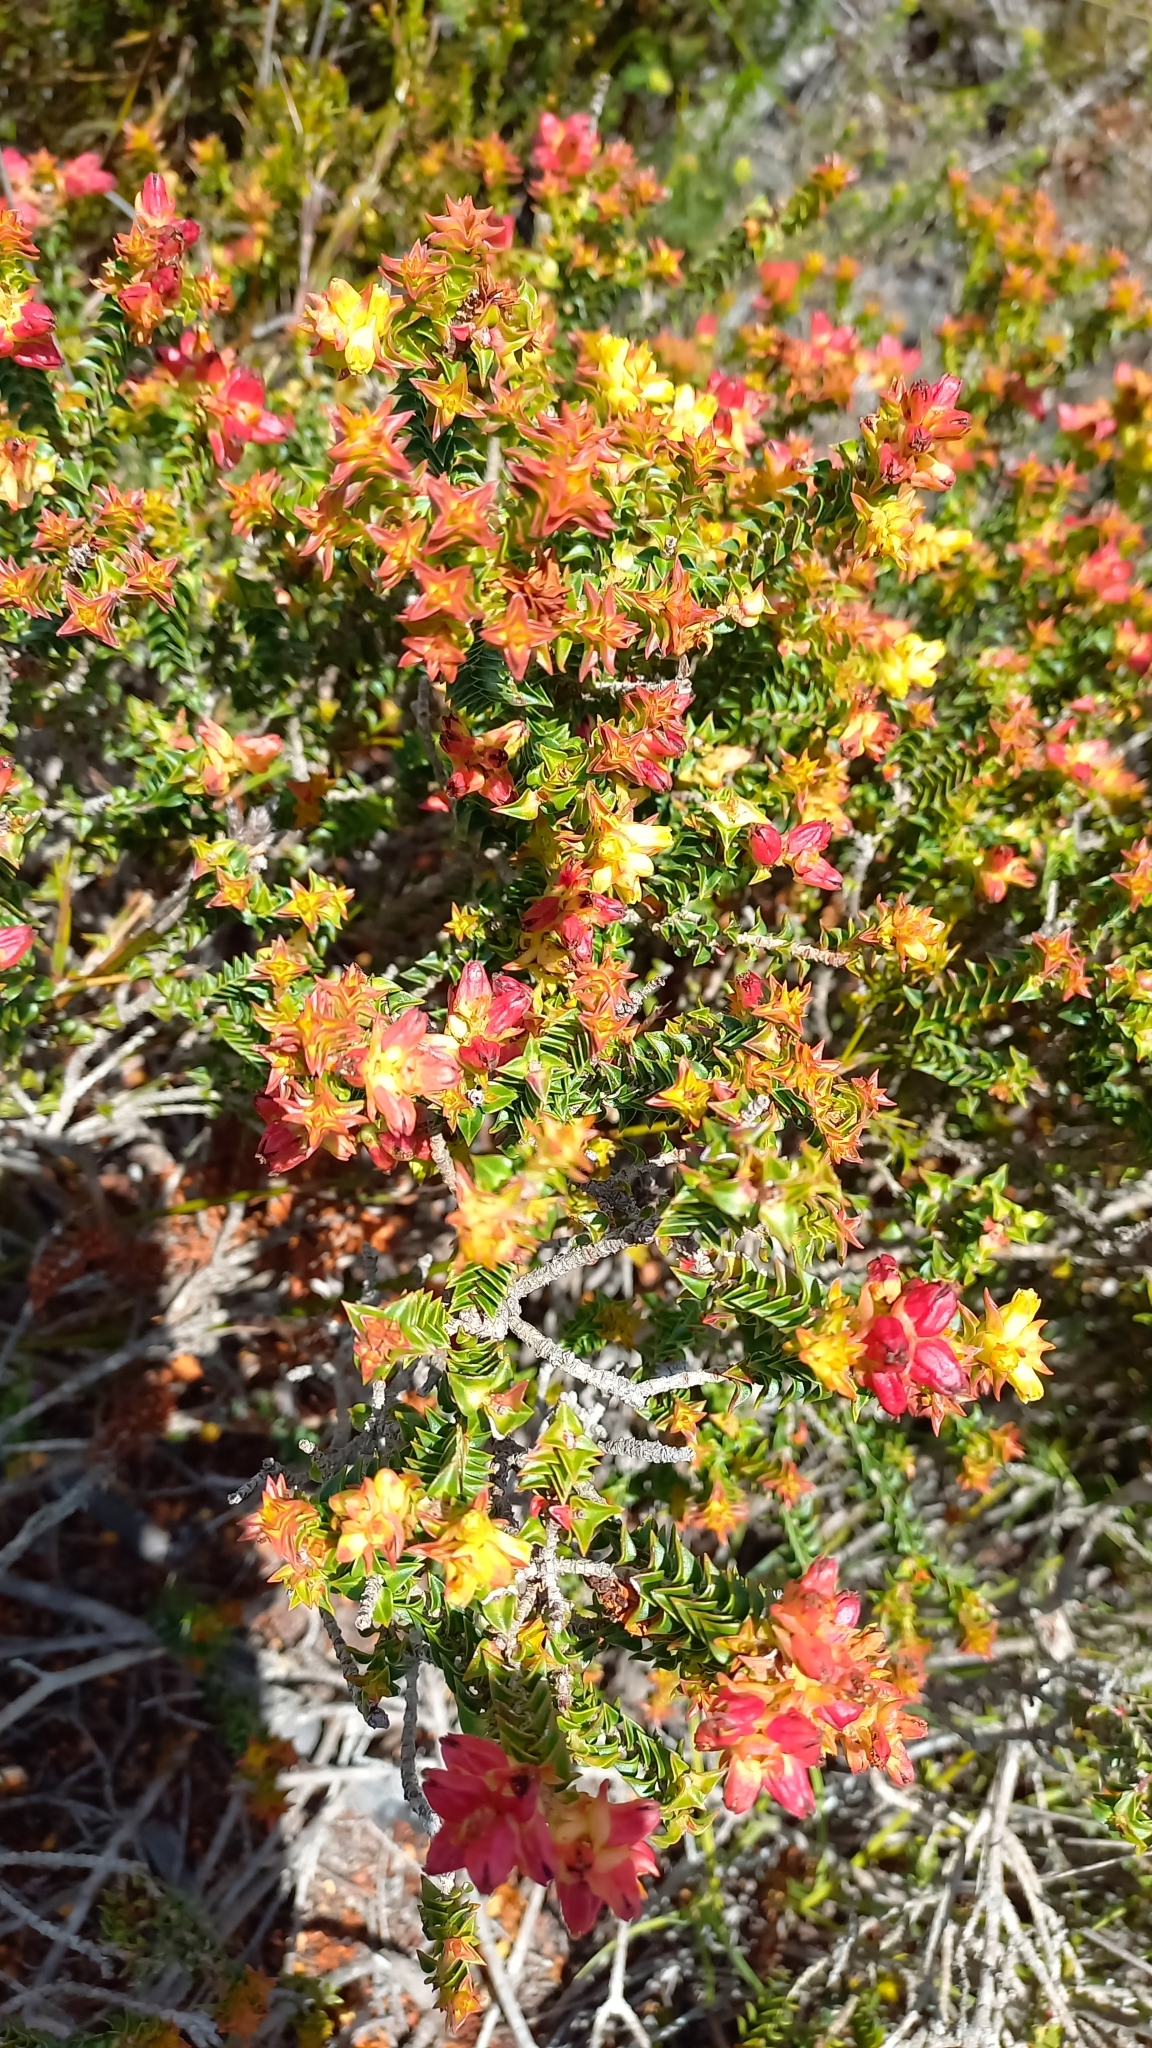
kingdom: Plantae
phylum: Tracheophyta
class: Magnoliopsida
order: Myrtales
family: Penaeaceae
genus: Penaea
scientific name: Penaea mucronata
